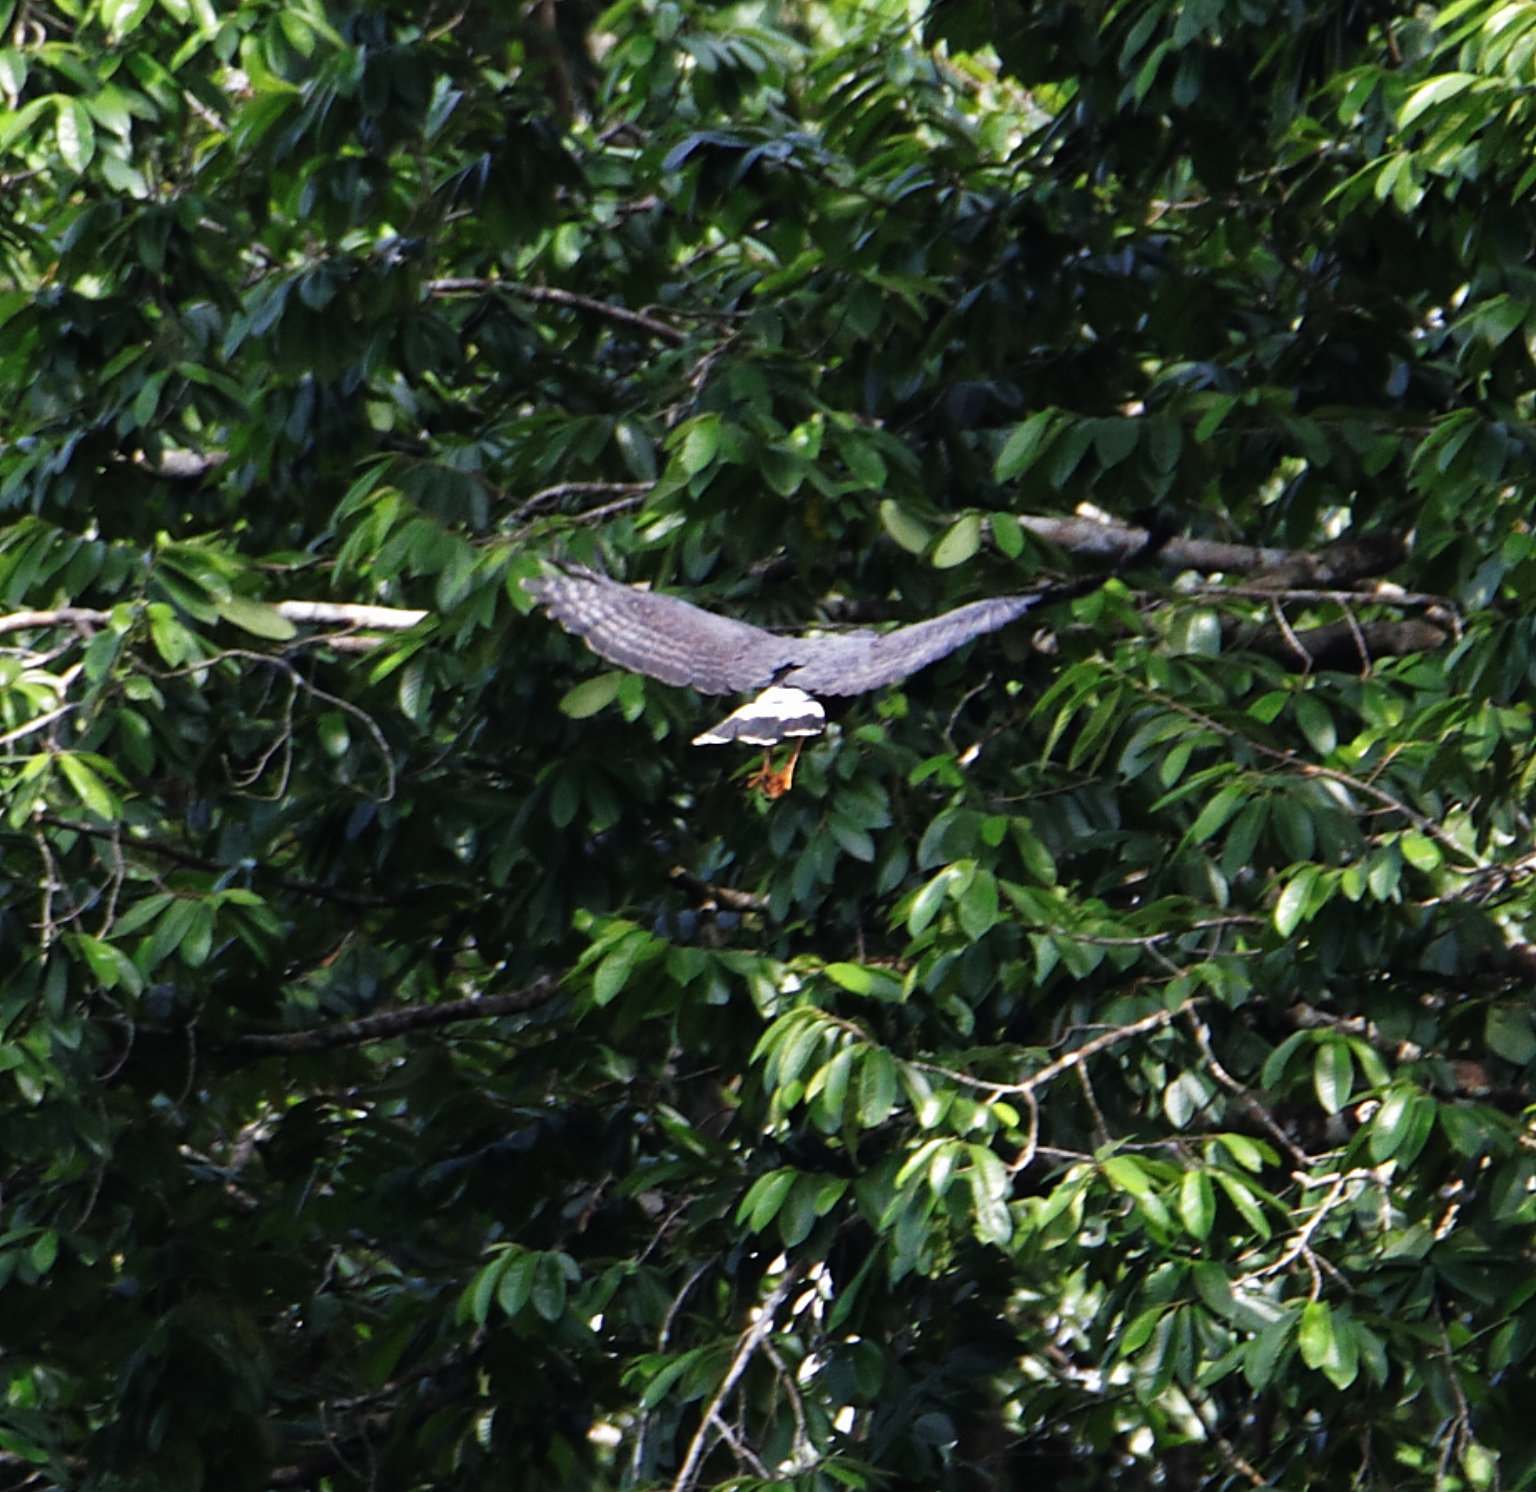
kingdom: Animalia
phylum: Chordata
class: Aves
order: Accipitriformes
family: Accipitridae
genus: Buteogallus
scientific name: Buteogallus anthracinus
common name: Common black hawk
